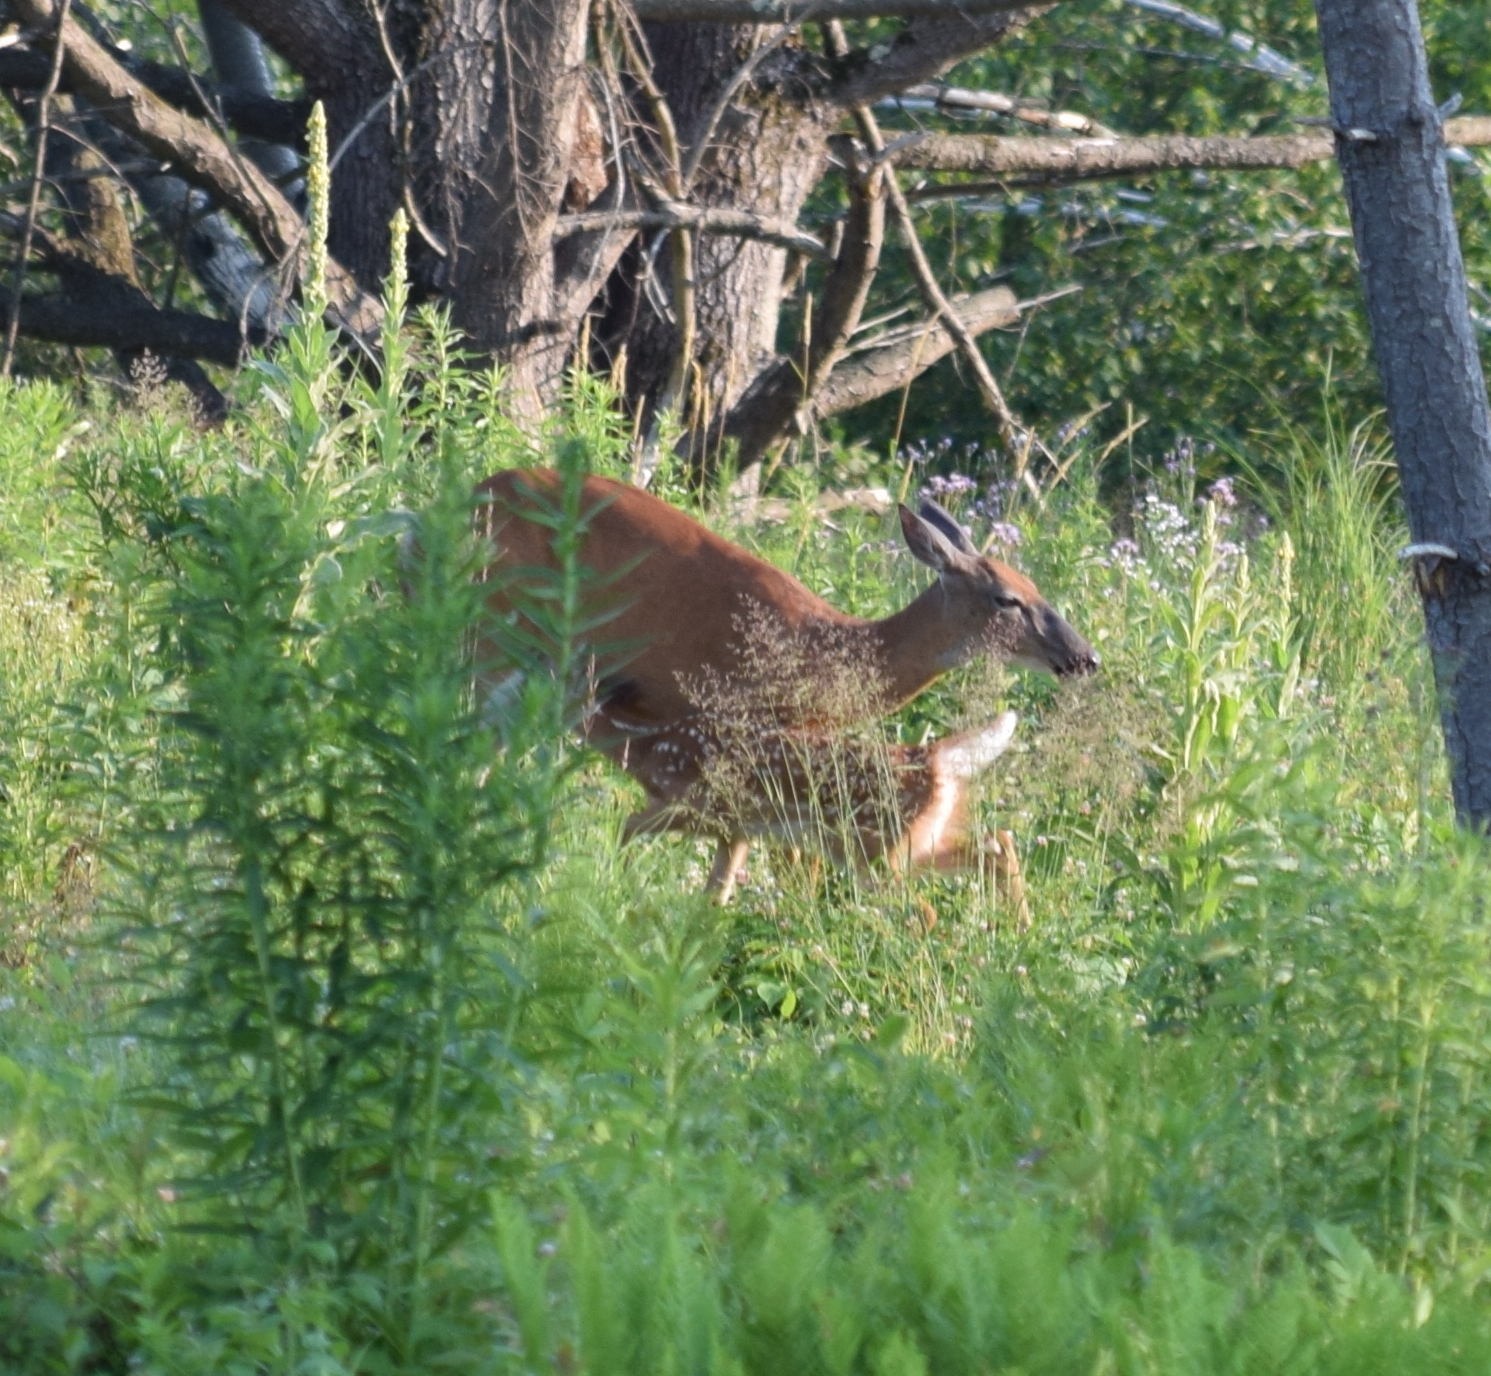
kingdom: Animalia
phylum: Chordata
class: Mammalia
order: Artiodactyla
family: Cervidae
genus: Odocoileus
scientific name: Odocoileus virginianus
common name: White-tailed deer
